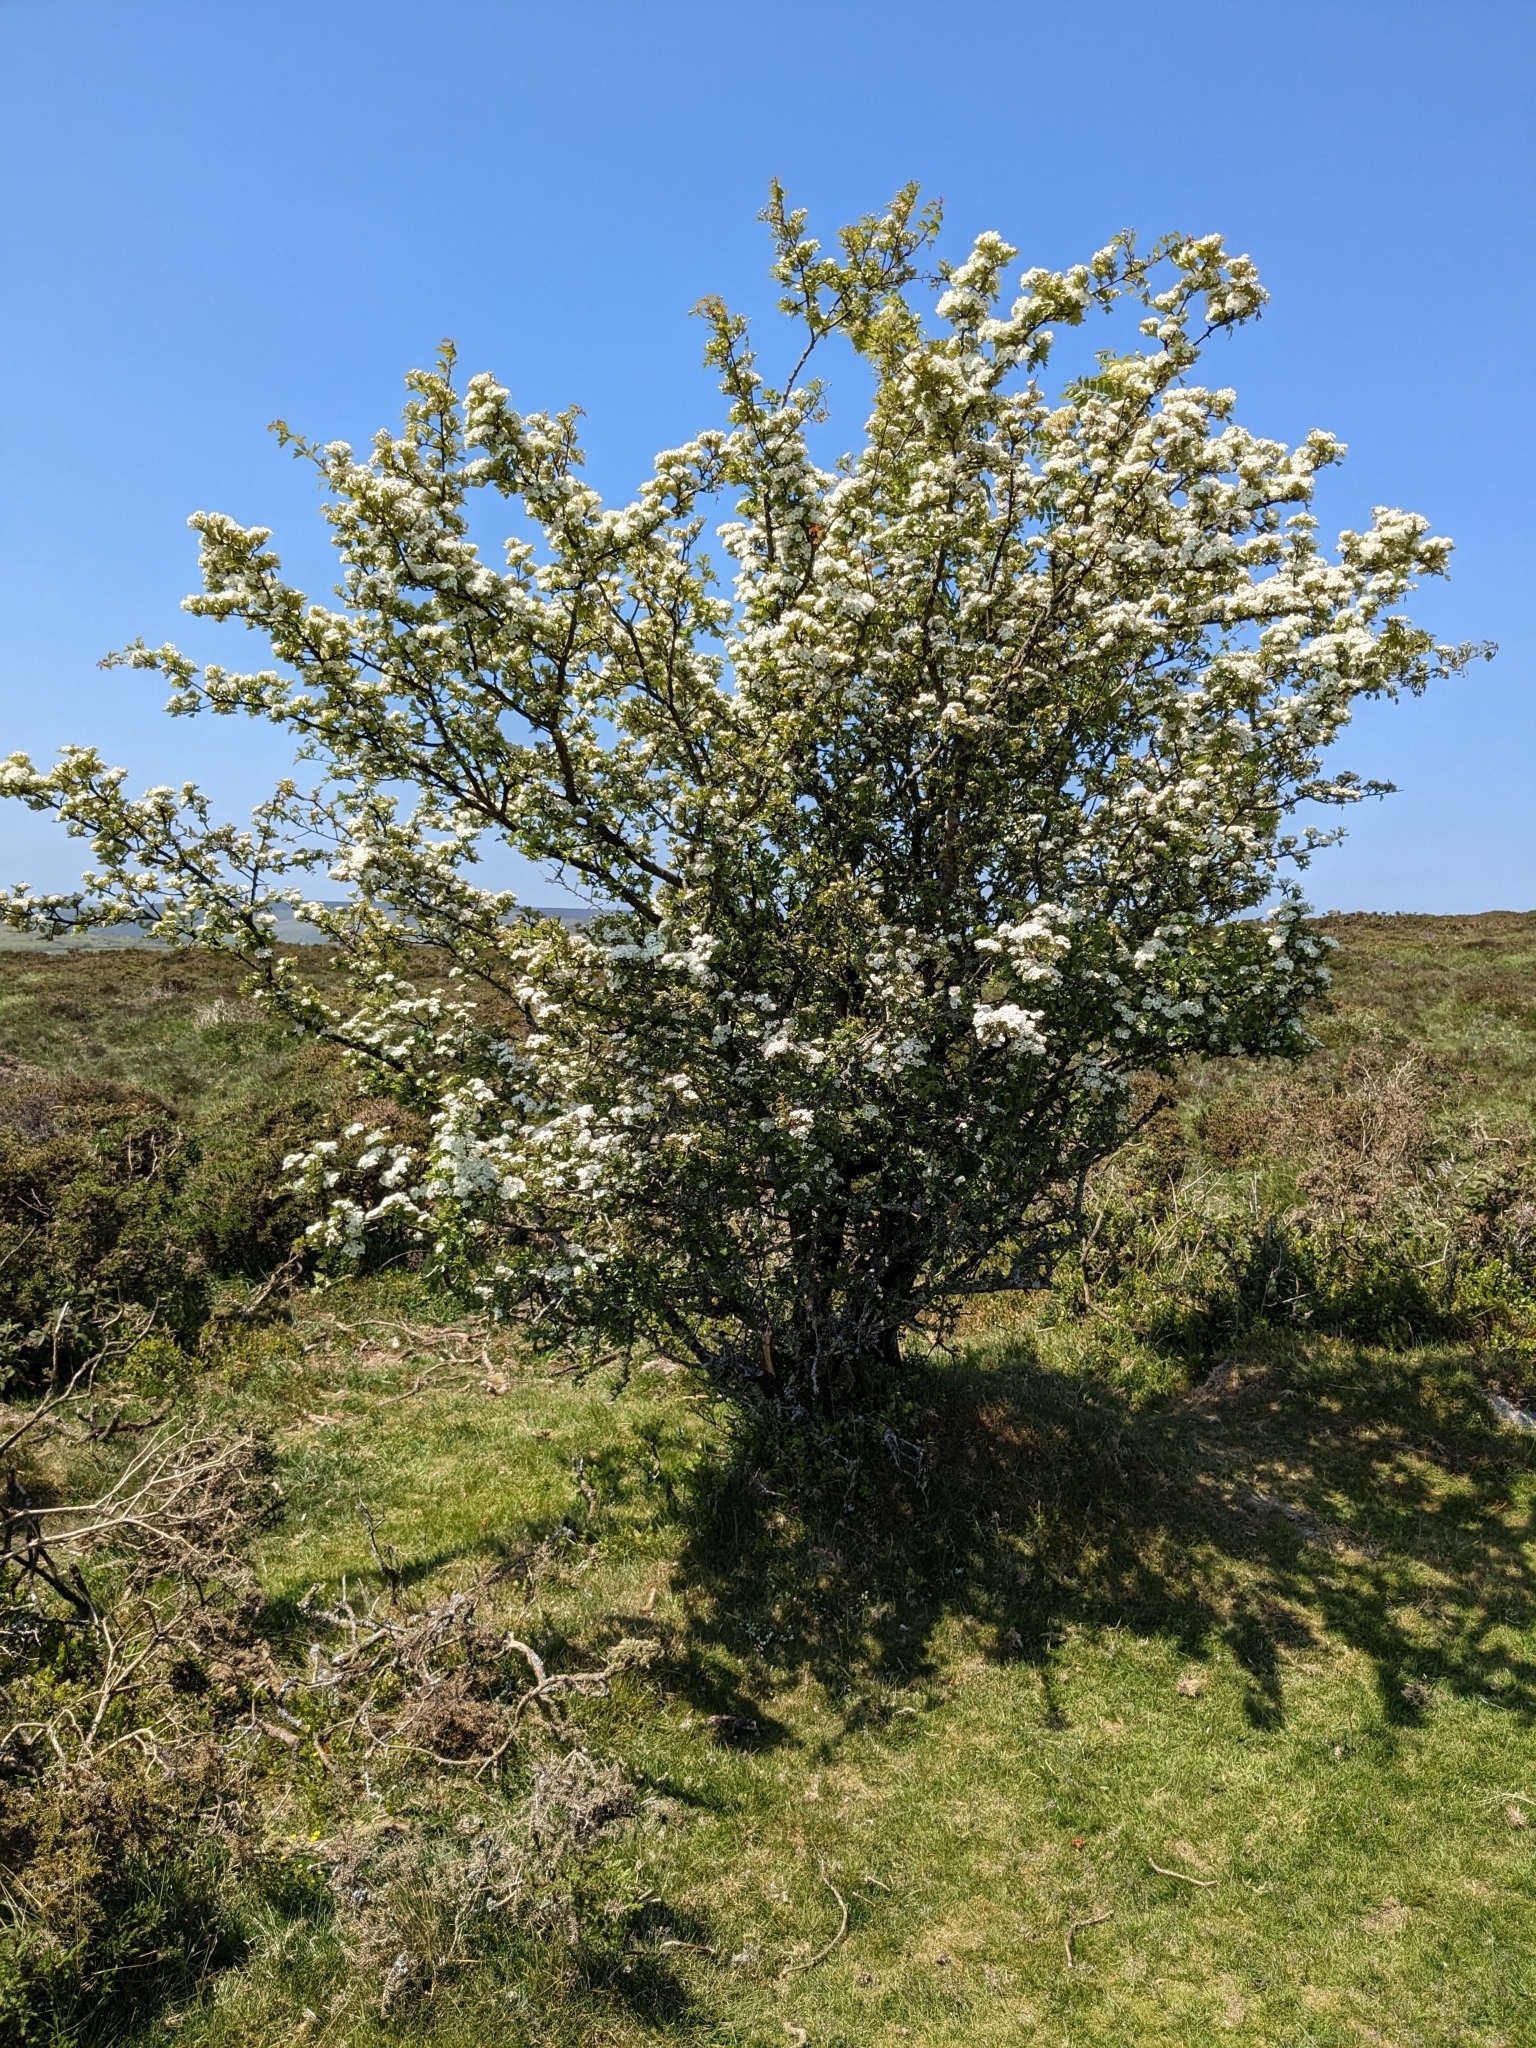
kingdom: Plantae
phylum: Tracheophyta
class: Magnoliopsida
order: Rosales
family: Rosaceae
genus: Crataegus
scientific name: Crataegus monogyna
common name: Hawthorn
